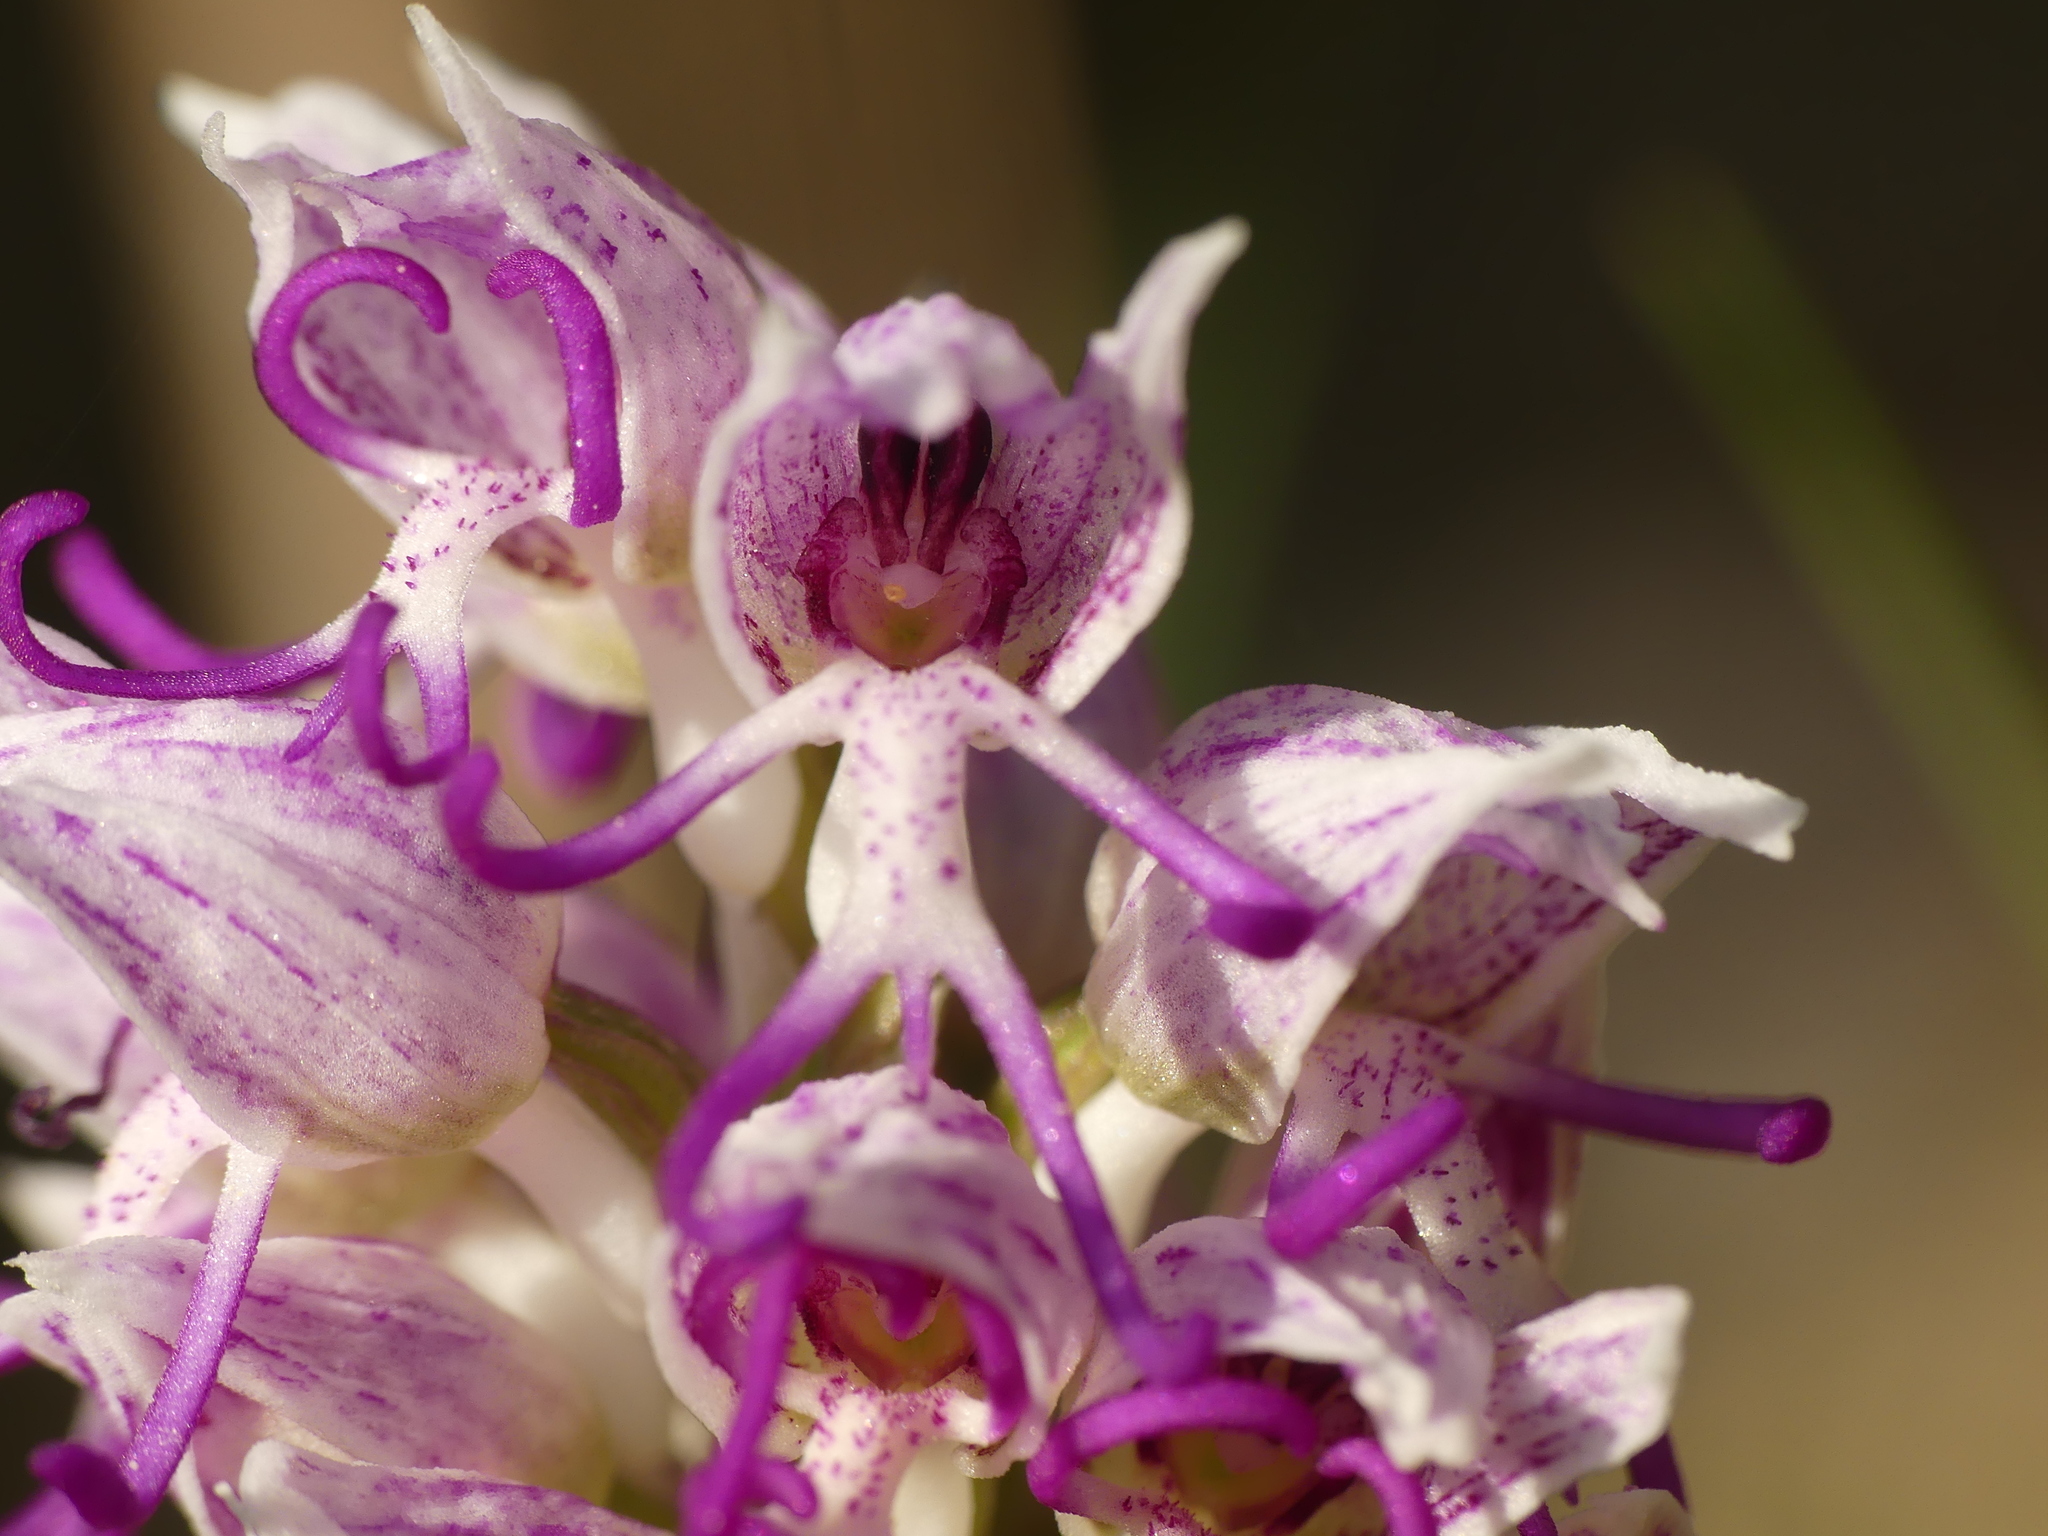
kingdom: Plantae
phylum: Tracheophyta
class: Liliopsida
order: Asparagales
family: Orchidaceae
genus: Orchis
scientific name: Orchis simia
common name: Monkey orchid
